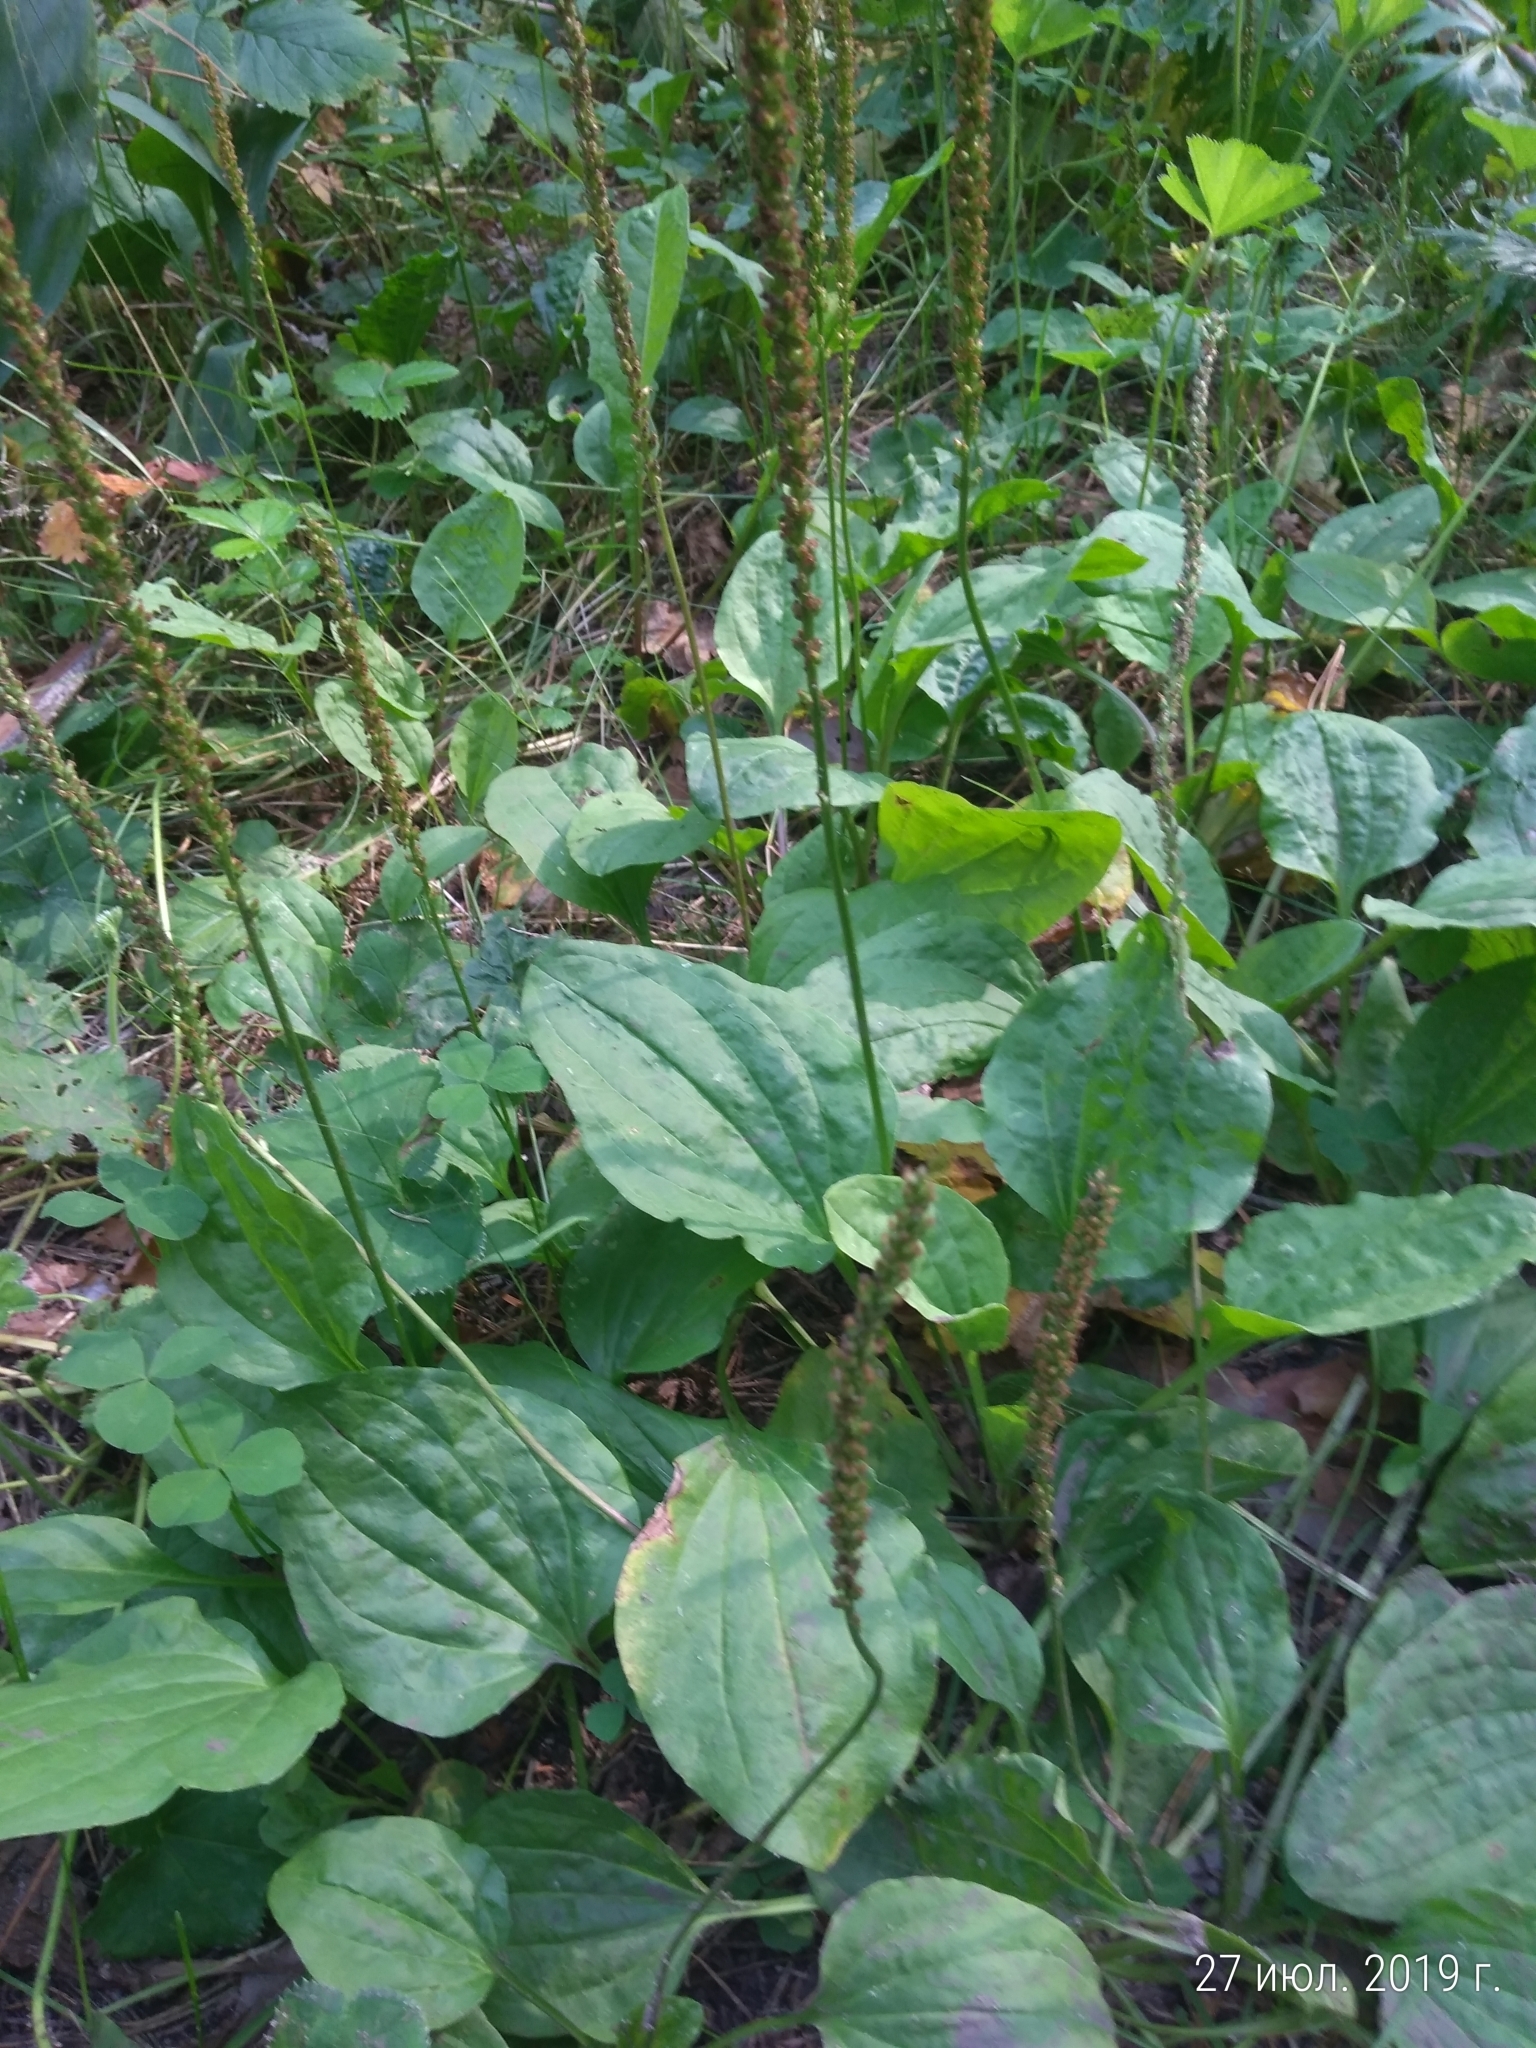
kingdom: Plantae
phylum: Tracheophyta
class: Magnoliopsida
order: Lamiales
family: Plantaginaceae
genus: Plantago
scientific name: Plantago major
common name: Common plantain
